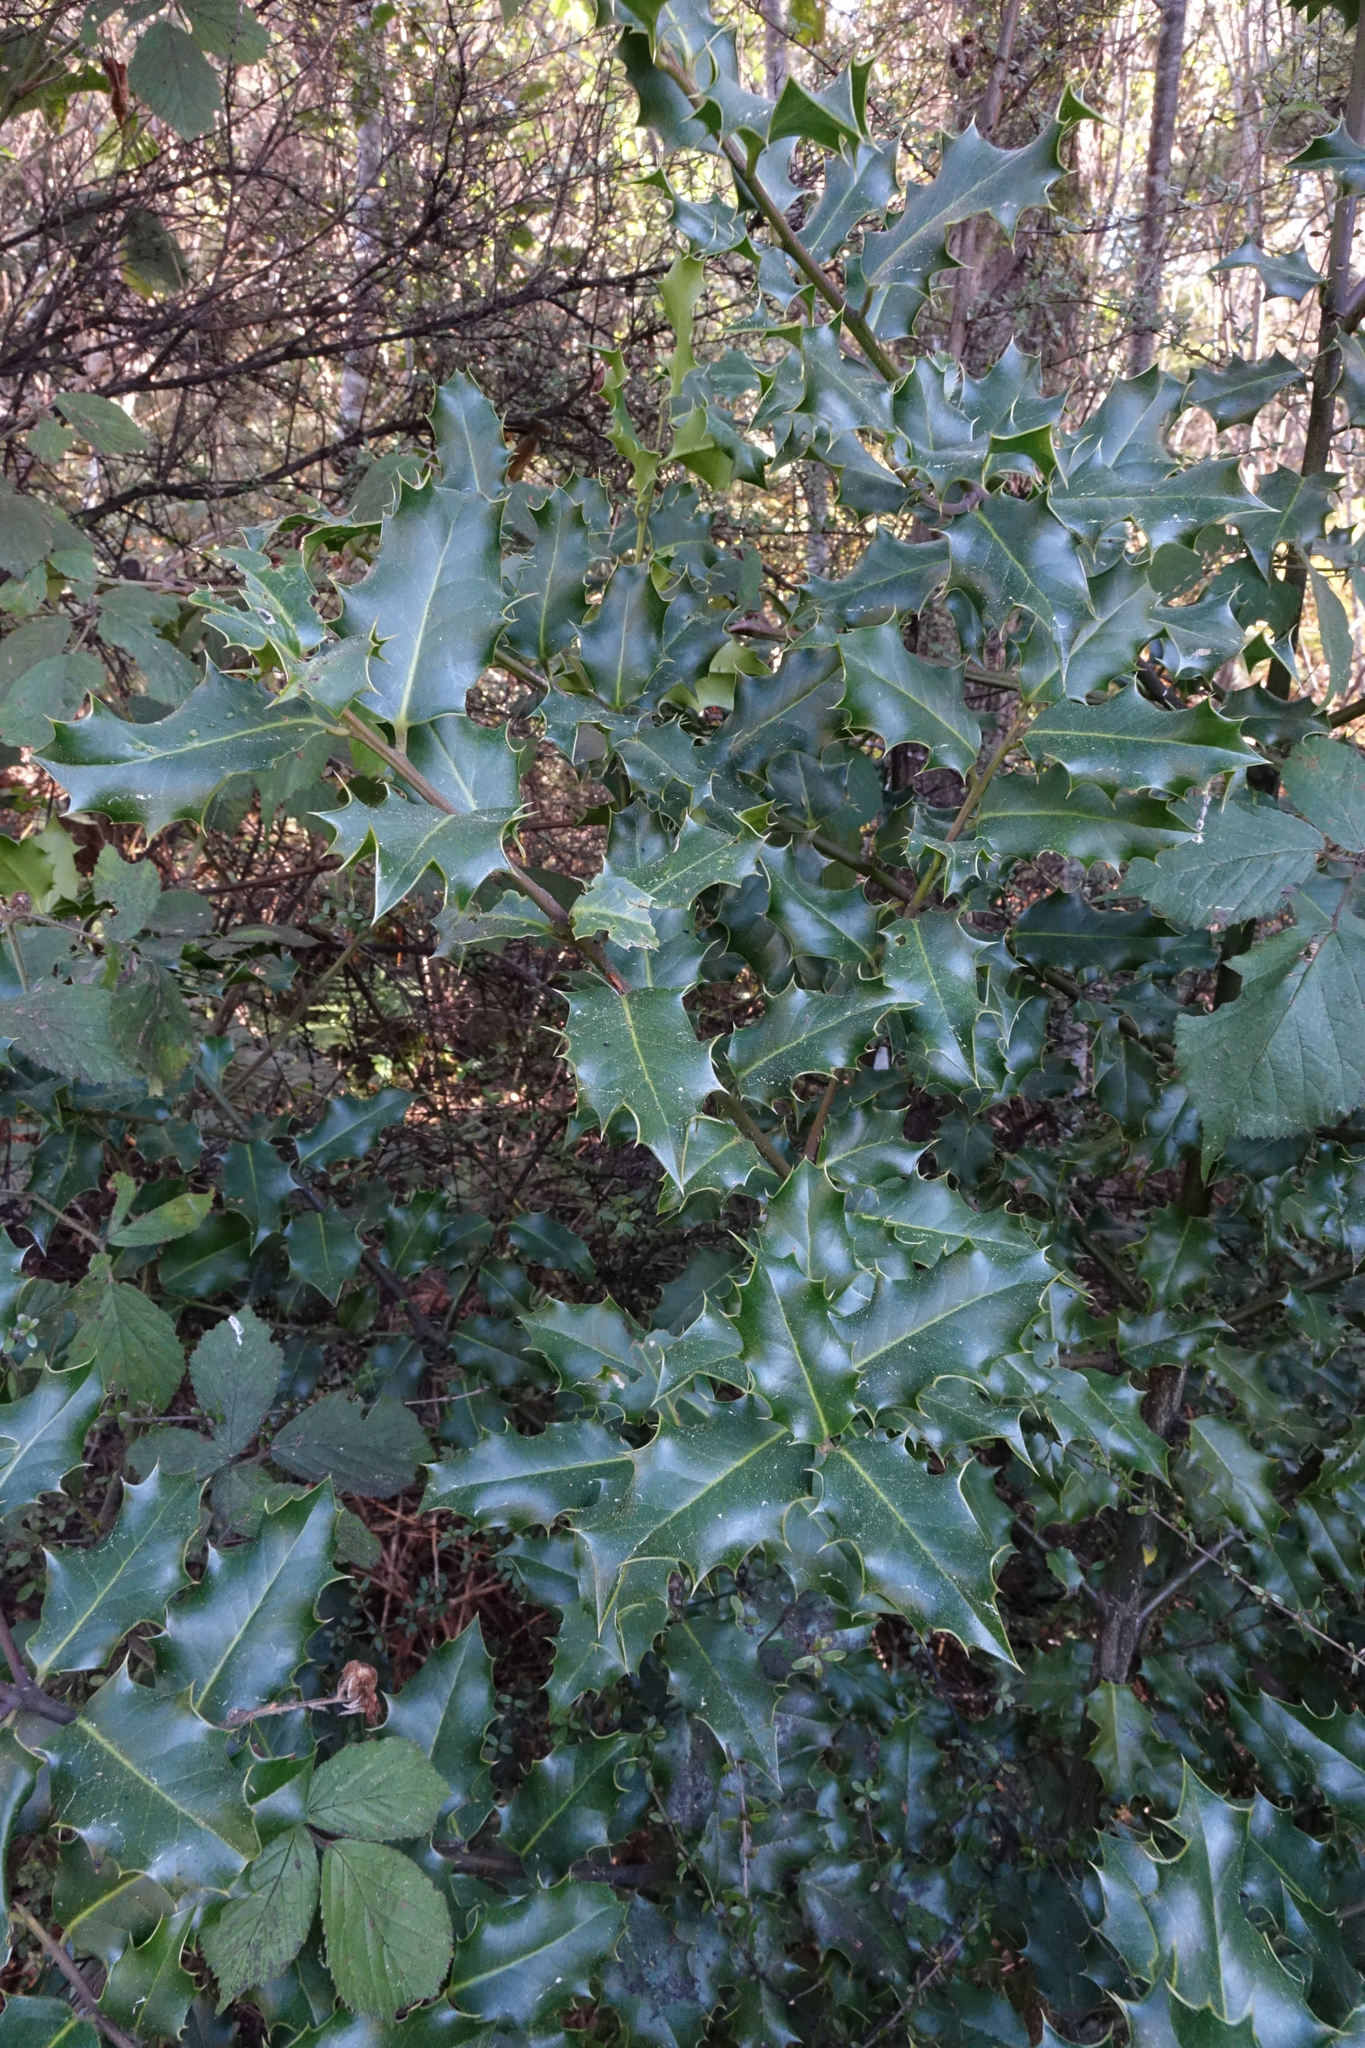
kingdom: Plantae
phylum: Tracheophyta
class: Magnoliopsida
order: Aquifoliales
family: Aquifoliaceae
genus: Ilex
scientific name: Ilex aquifolium
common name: English holly
